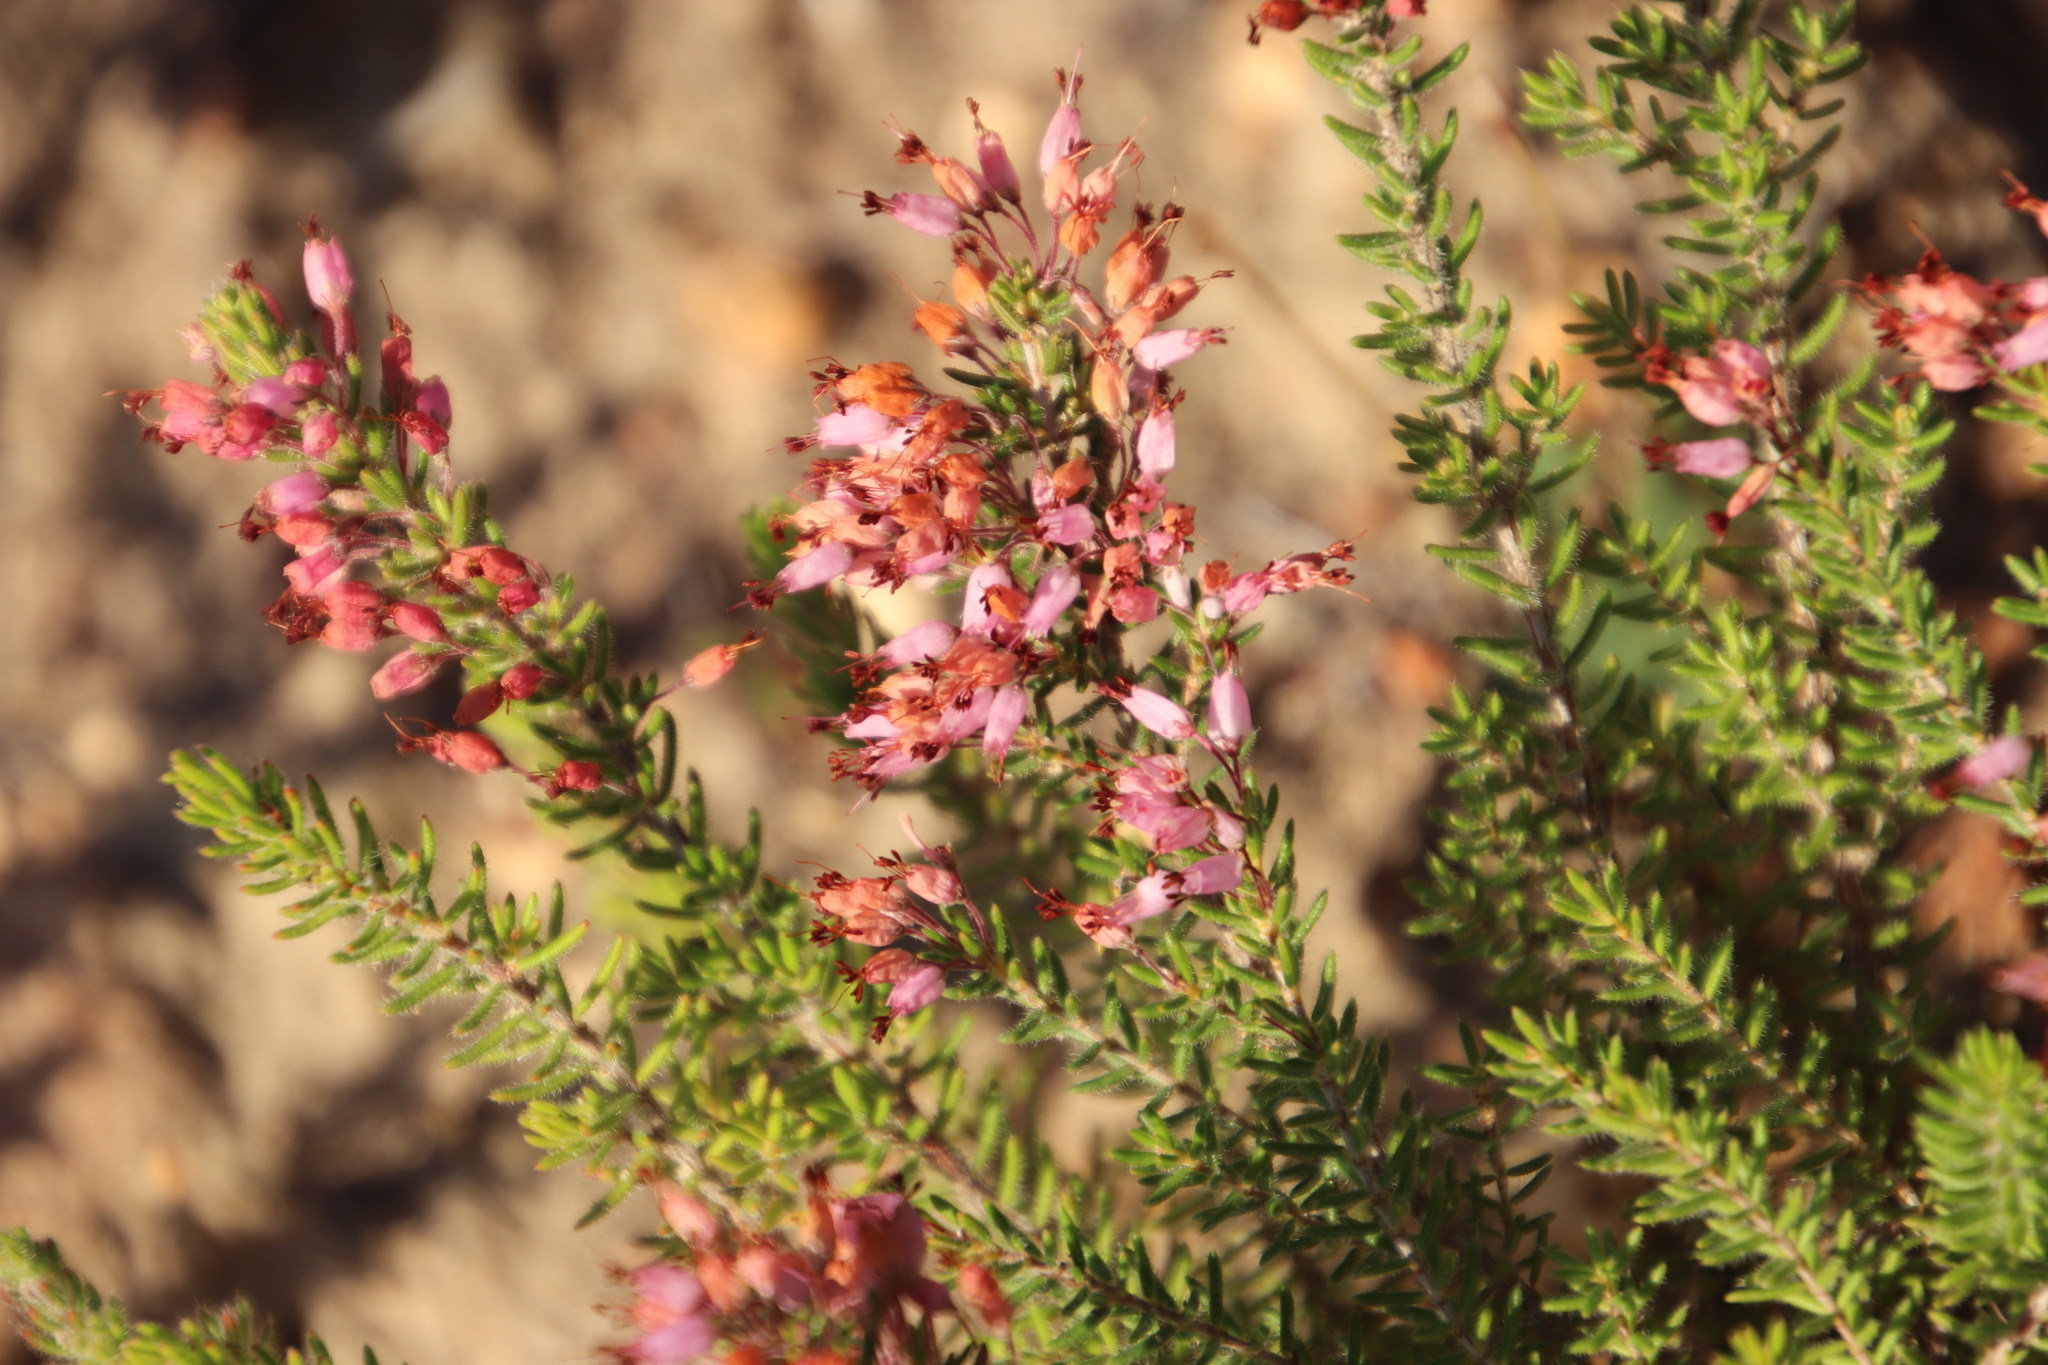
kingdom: Plantae
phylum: Tracheophyta
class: Magnoliopsida
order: Ericales
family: Ericaceae
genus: Erica
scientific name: Erica nudiflora
